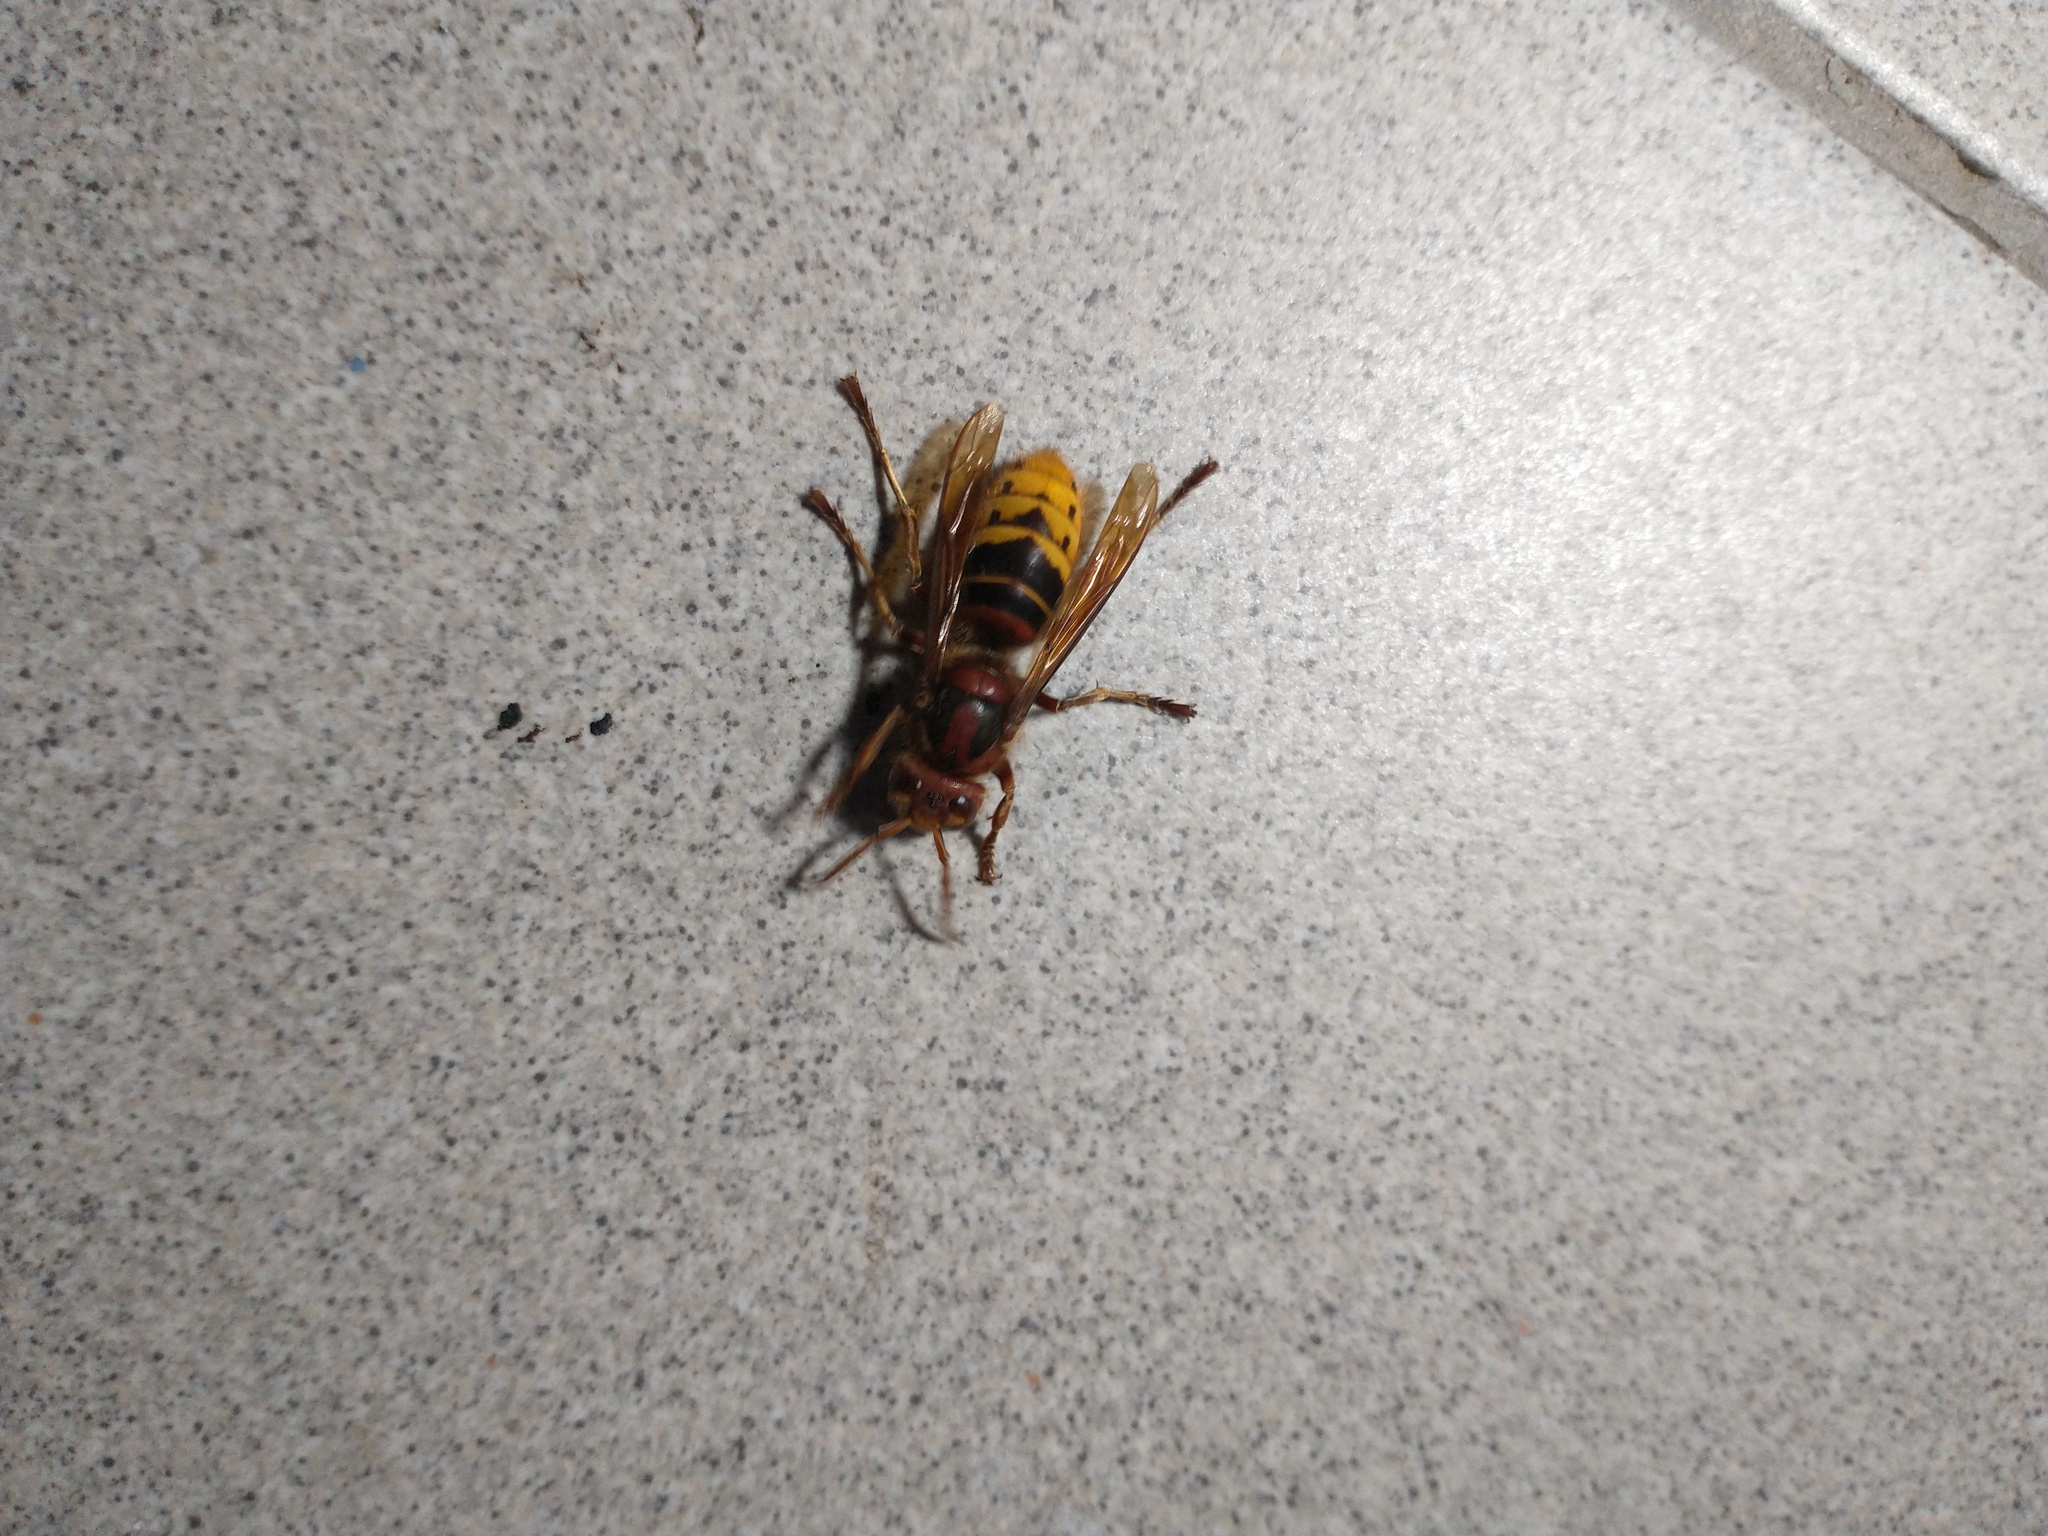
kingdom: Animalia
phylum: Arthropoda
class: Insecta
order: Hymenoptera
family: Vespidae
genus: Vespa
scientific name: Vespa crabro
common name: Hornet
